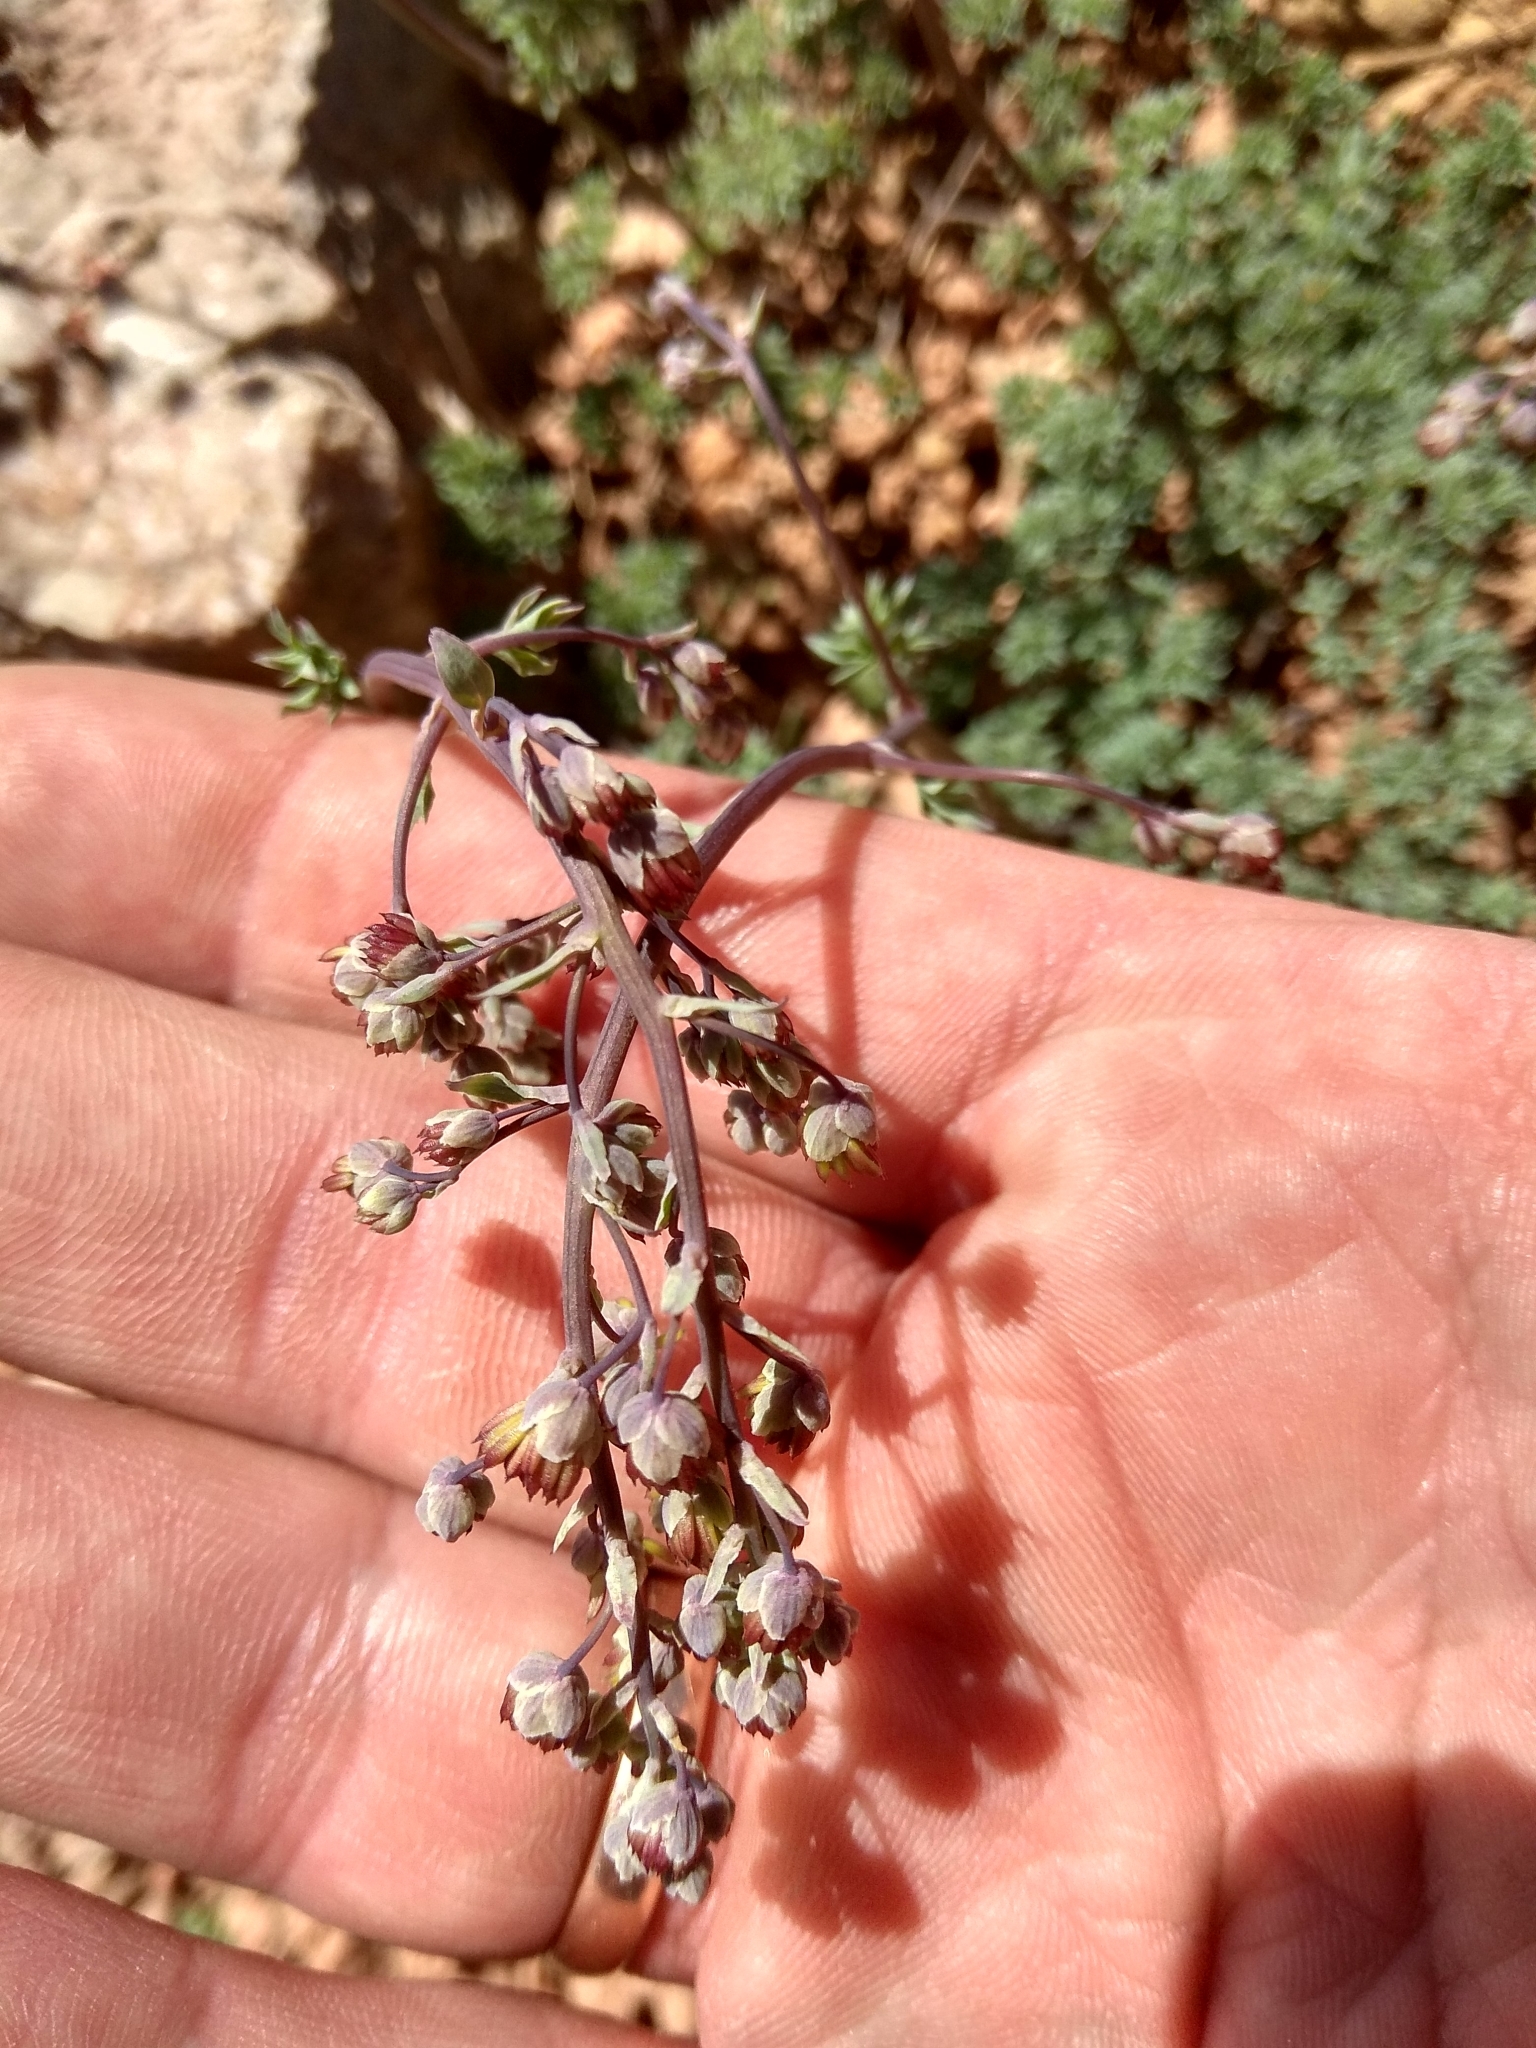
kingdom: Plantae
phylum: Tracheophyta
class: Magnoliopsida
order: Ranunculales
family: Ranunculaceae
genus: Thalictrum
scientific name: Thalictrum isopyroides
